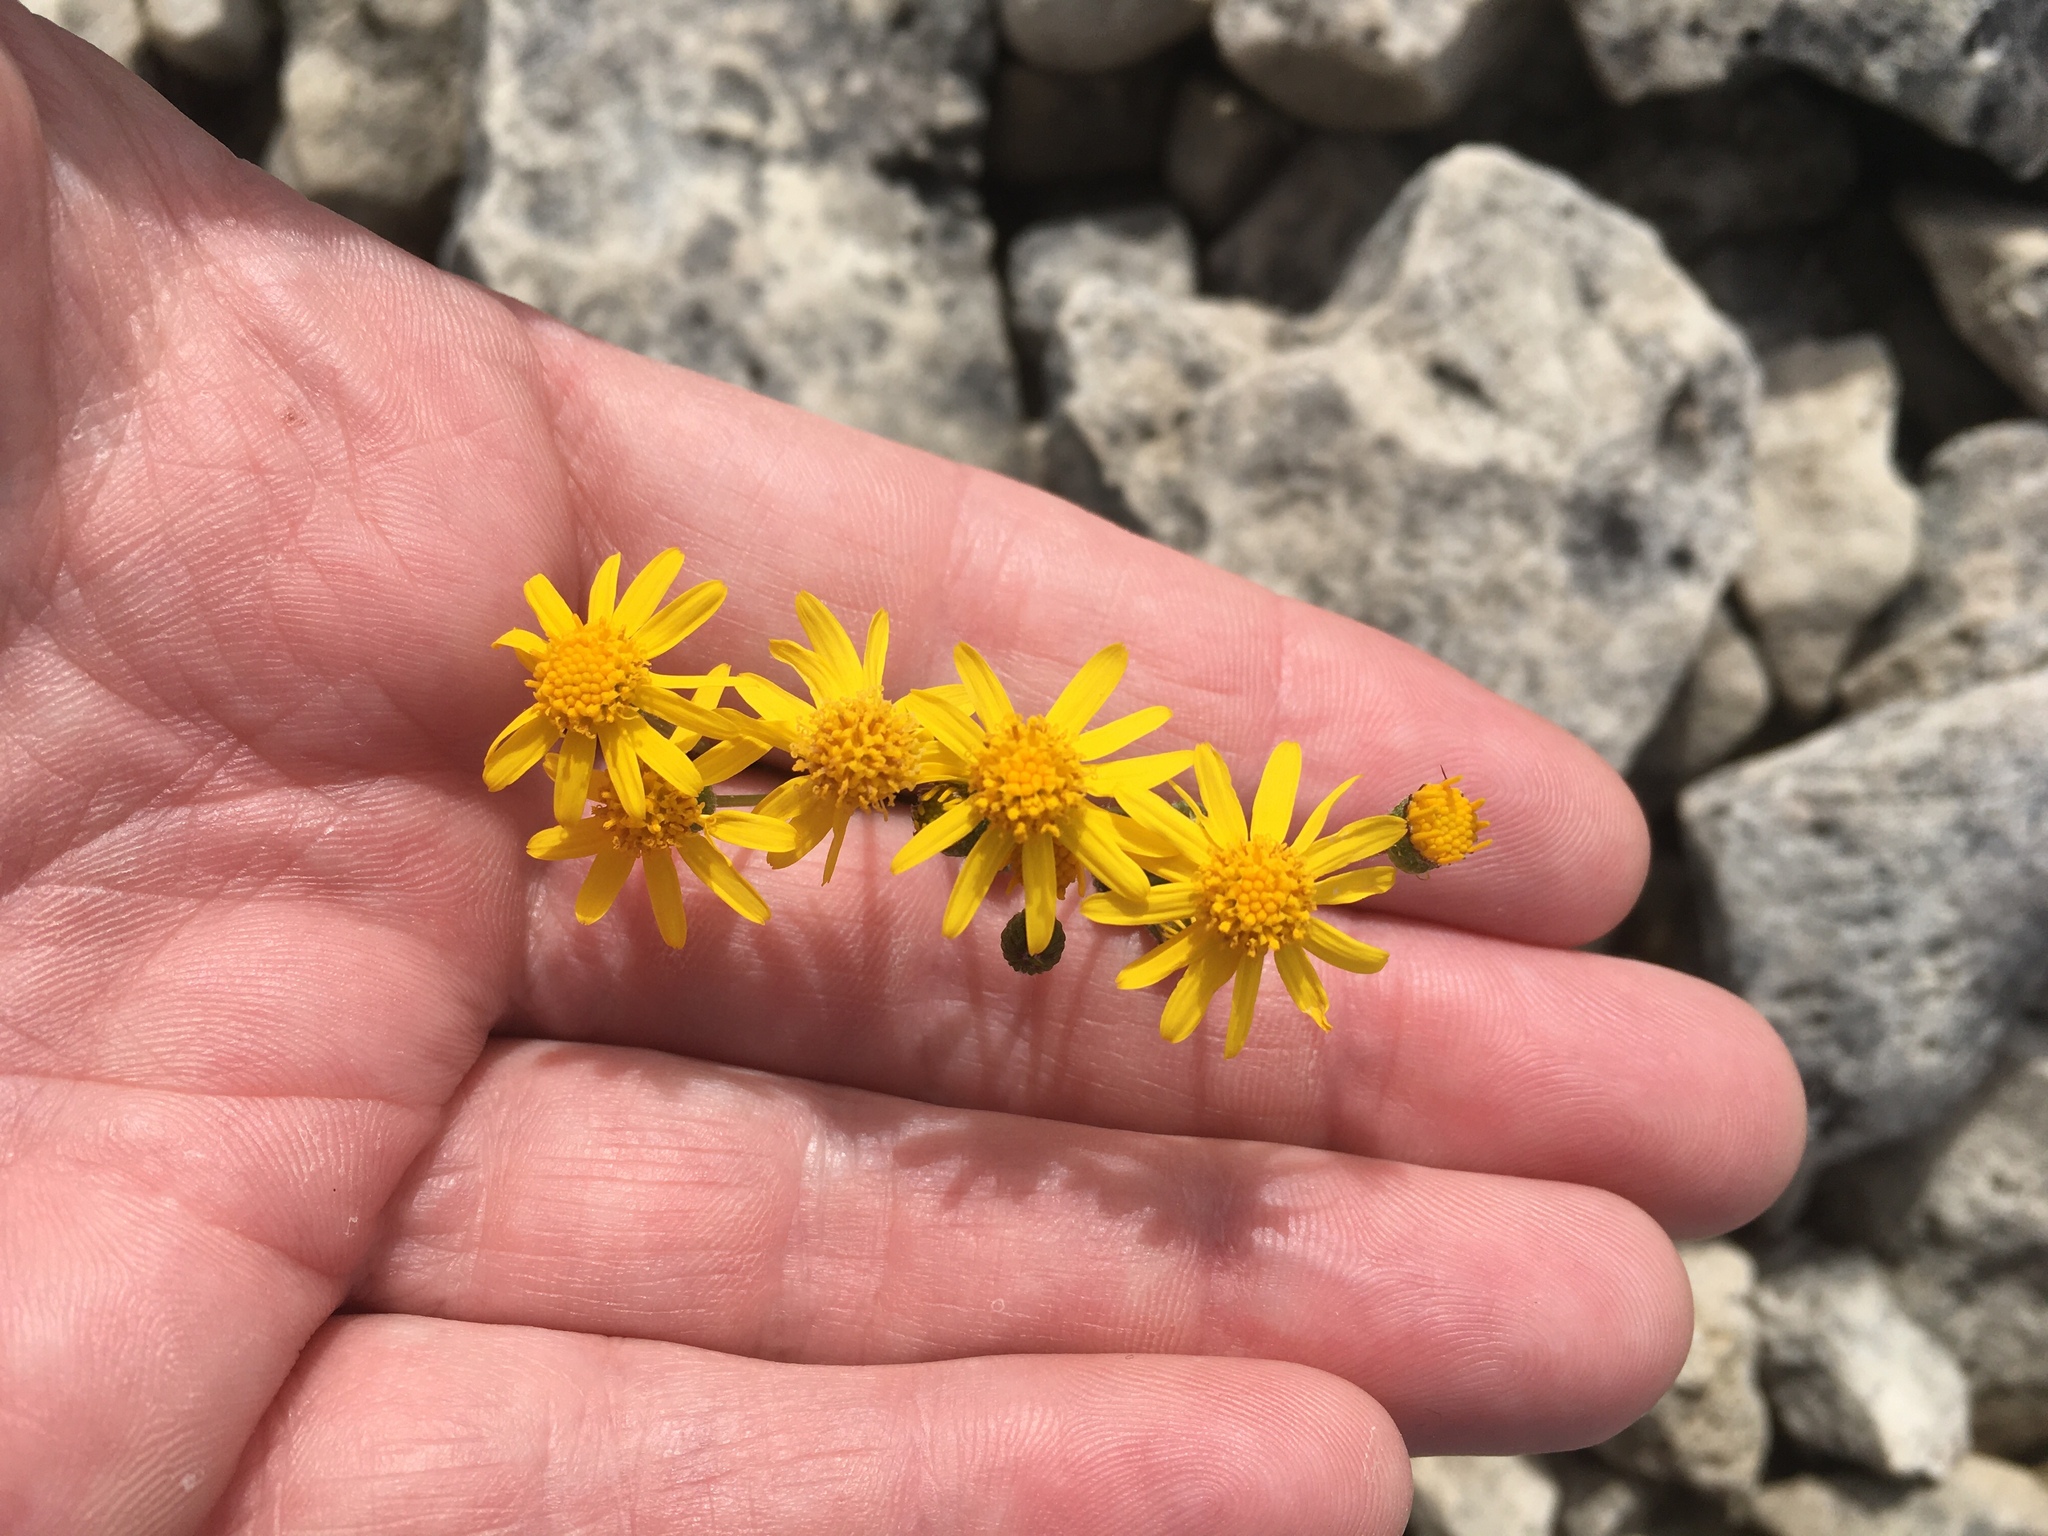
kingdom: Plantae
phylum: Tracheophyta
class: Magnoliopsida
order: Asterales
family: Asteraceae
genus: Packera
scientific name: Packera paupercula
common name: Balsam groundsel
